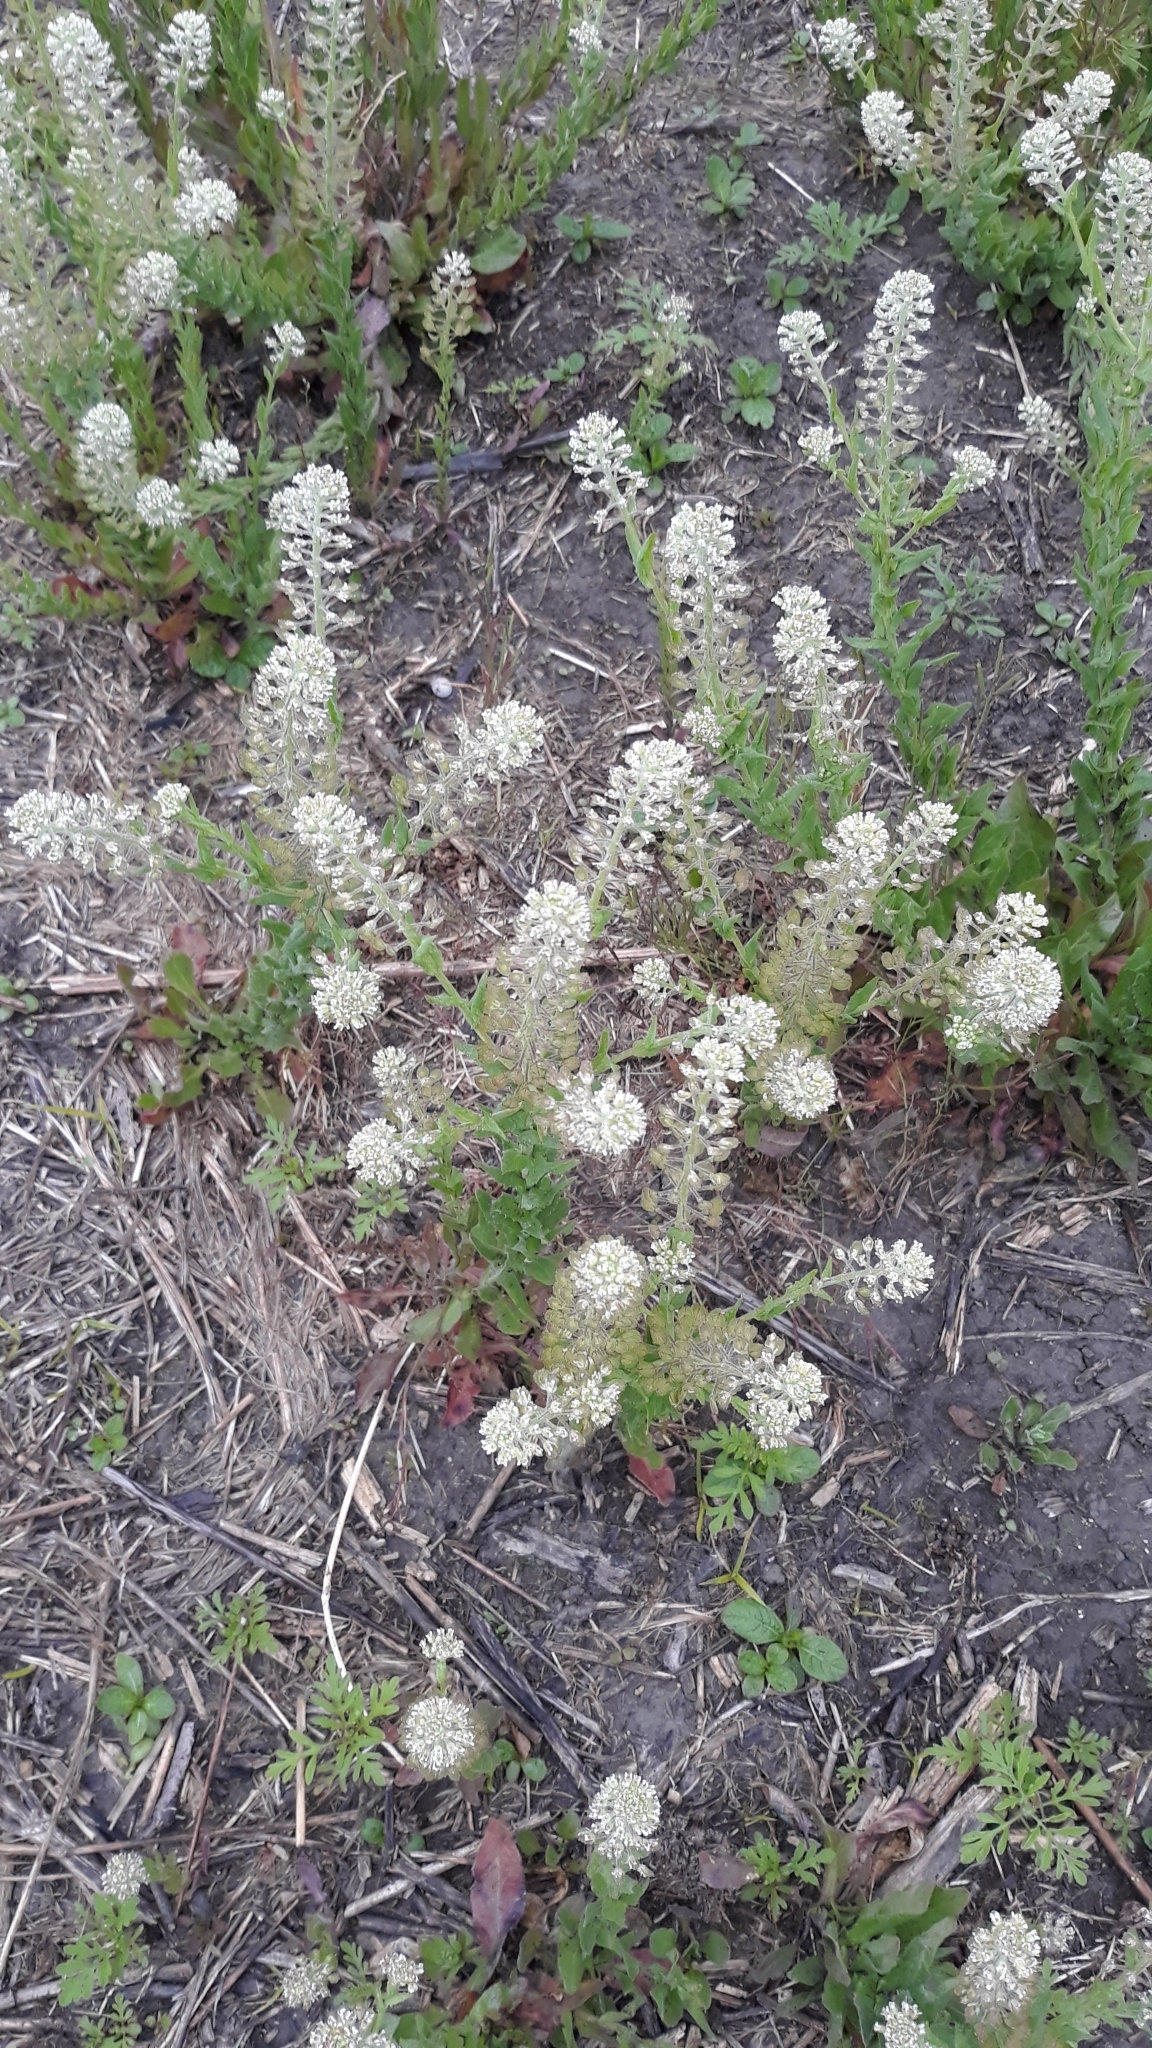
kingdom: Plantae
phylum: Tracheophyta
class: Magnoliopsida
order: Brassicales
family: Brassicaceae
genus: Lepidium
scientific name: Lepidium campestre
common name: Field pepperwort
